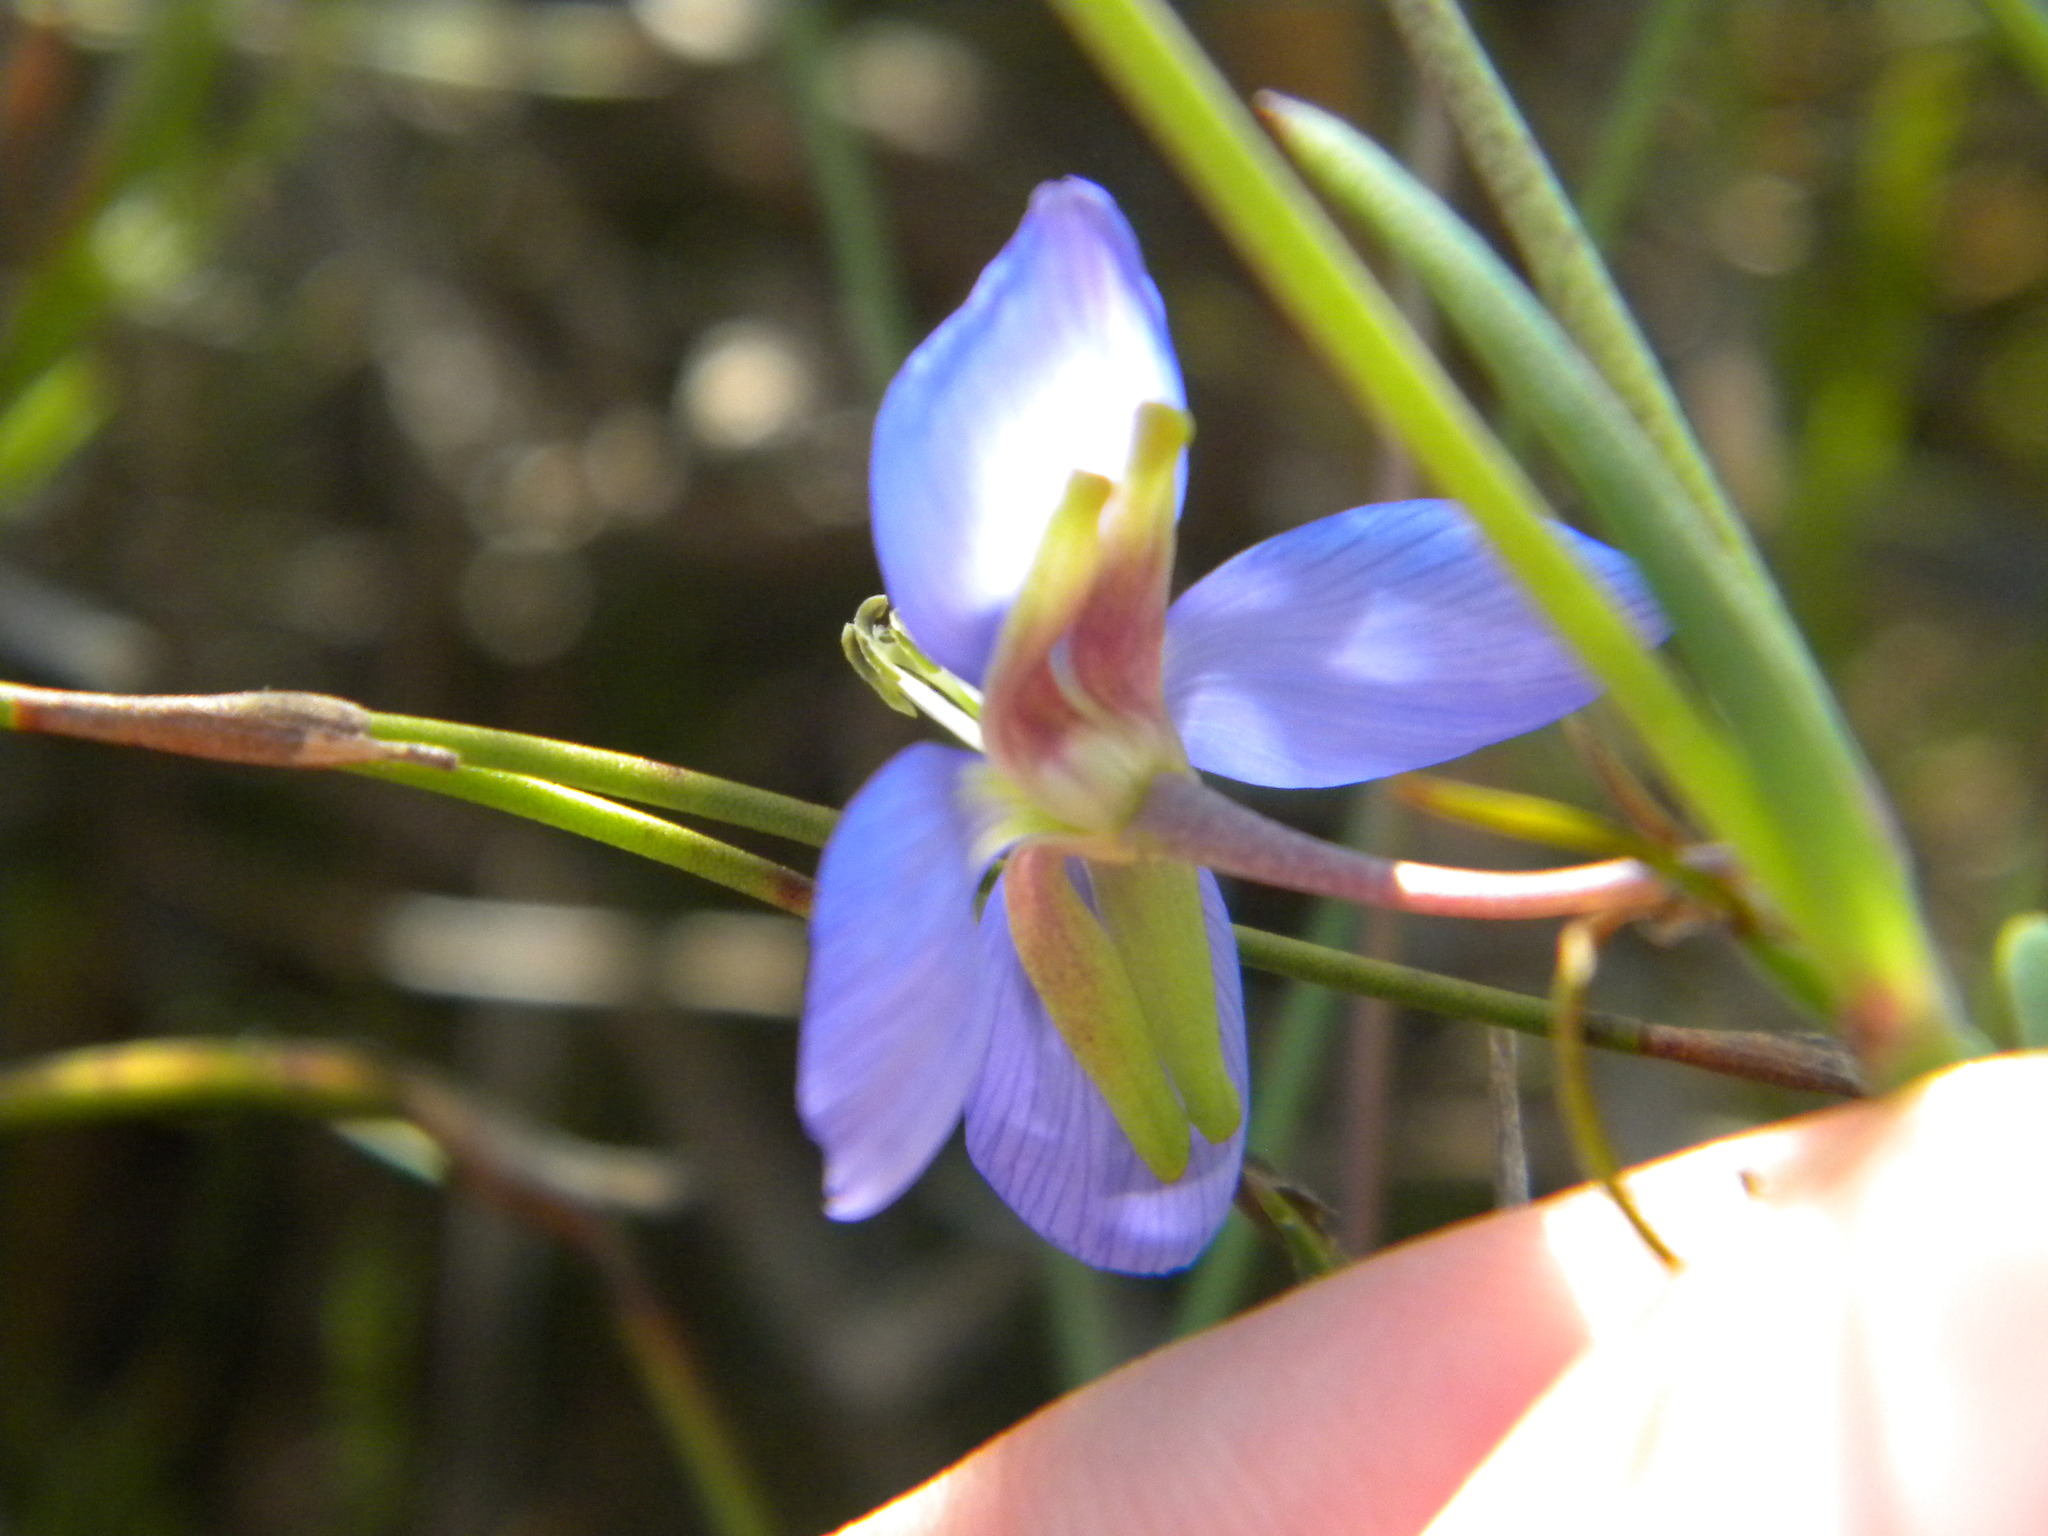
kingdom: Plantae
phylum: Tracheophyta
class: Magnoliopsida
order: Brassicales
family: Brassicaceae
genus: Heliophila
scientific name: Heliophila linearis
